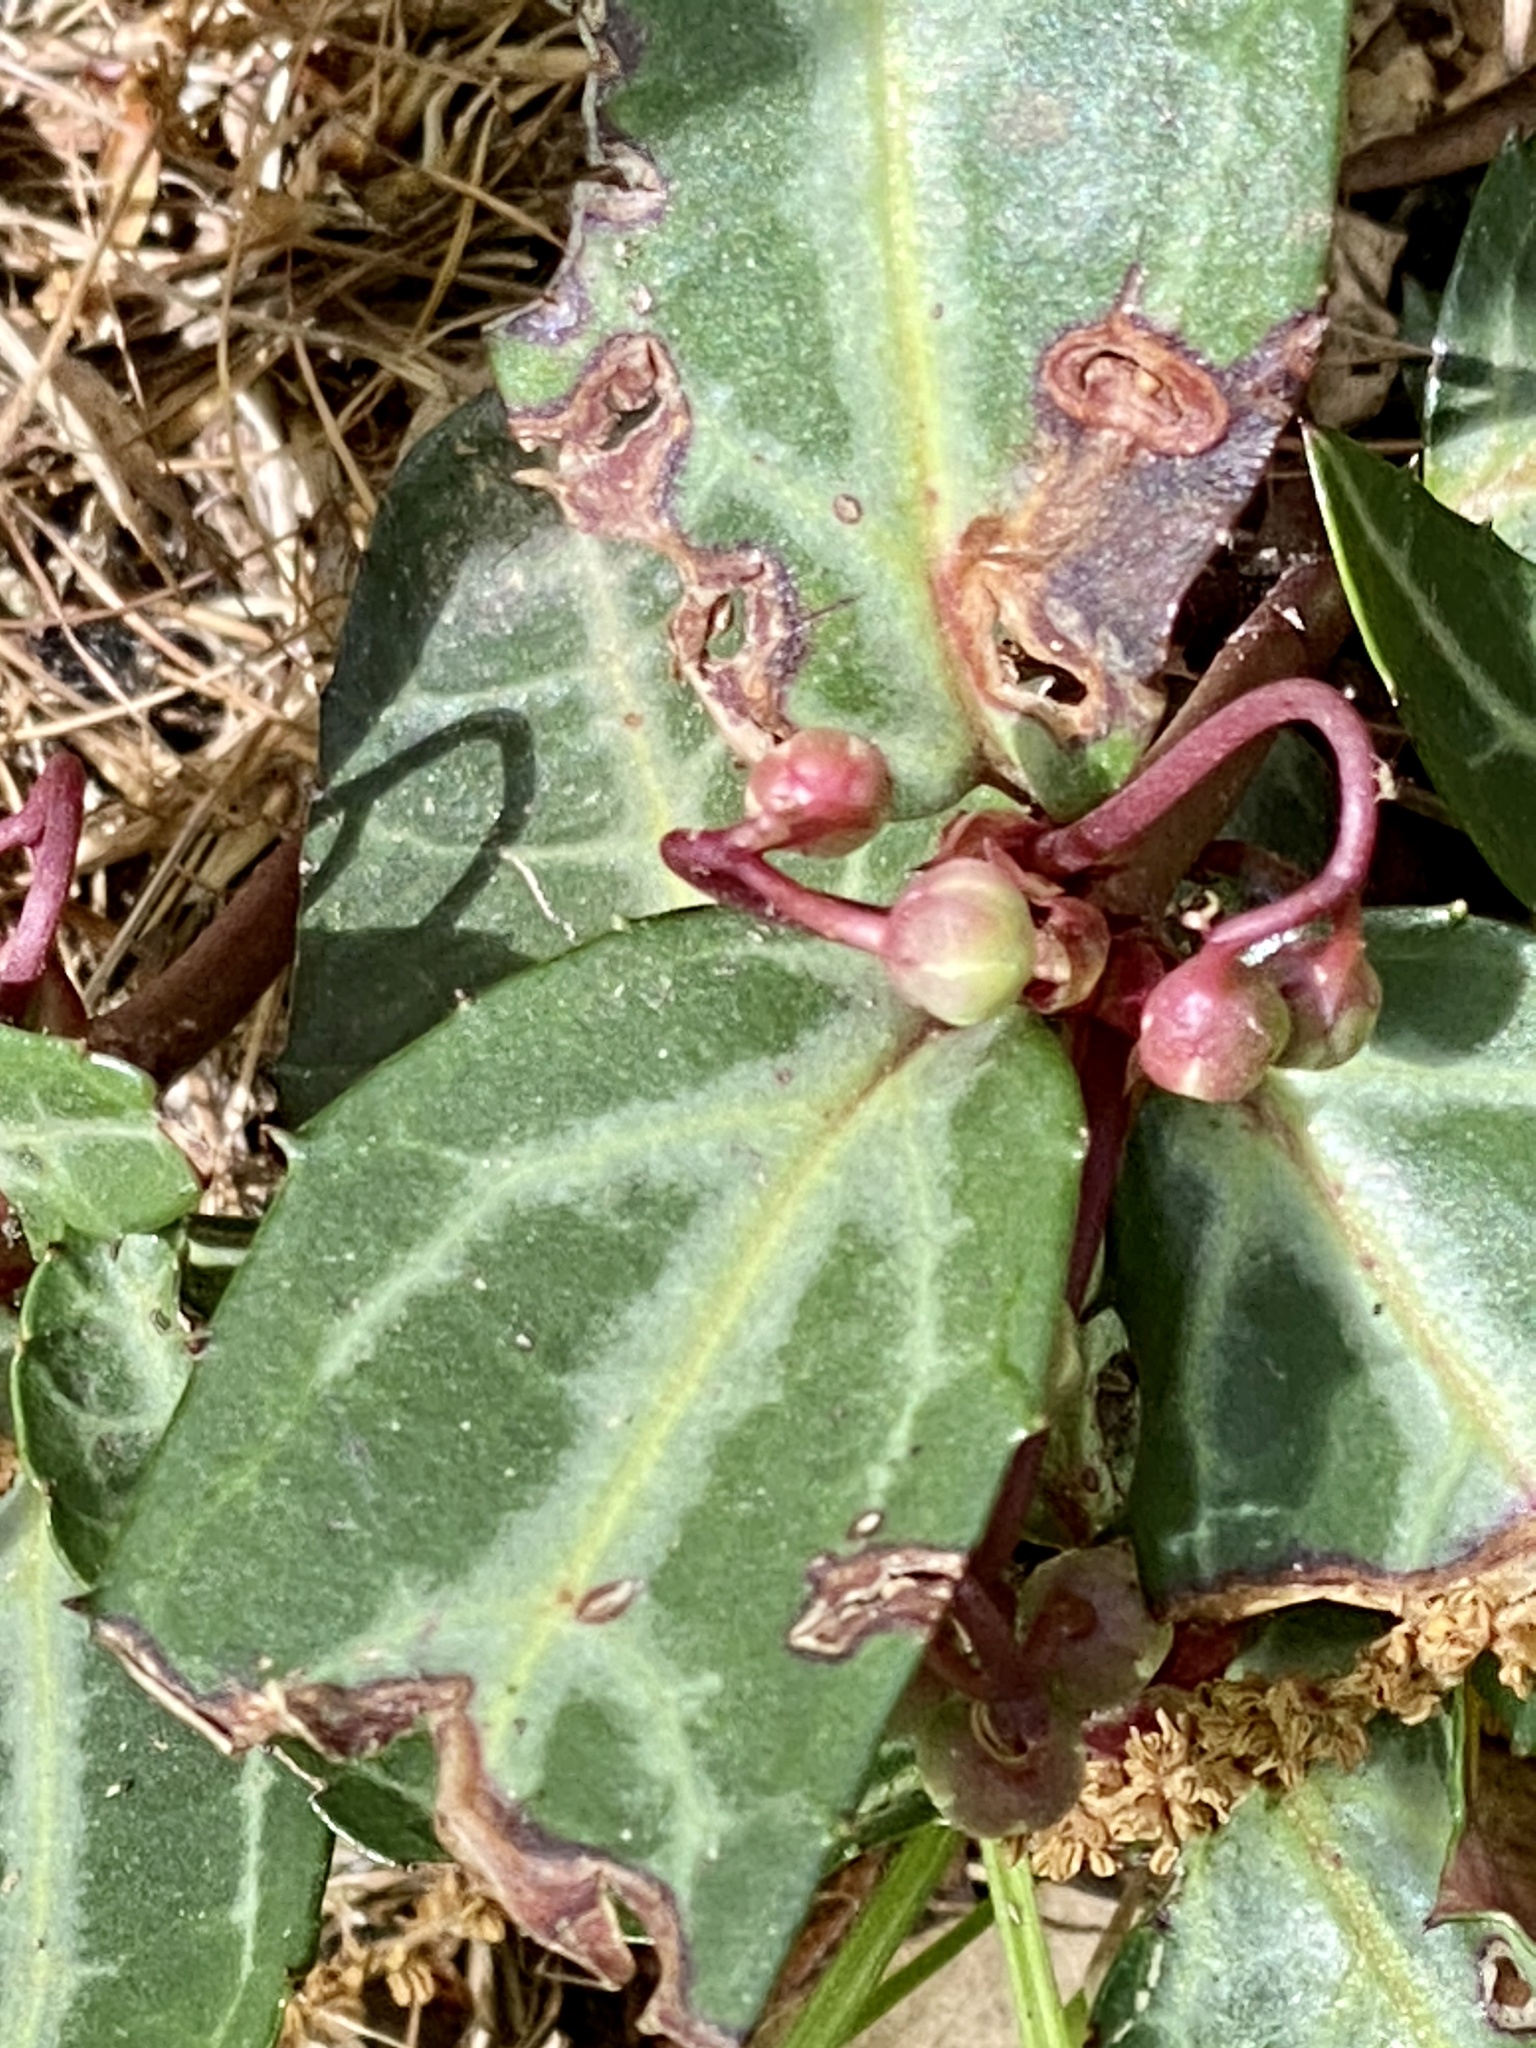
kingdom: Plantae
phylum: Tracheophyta
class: Magnoliopsida
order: Ericales
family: Ericaceae
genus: Chimaphila
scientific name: Chimaphila maculata
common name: Spotted pipsissewa
